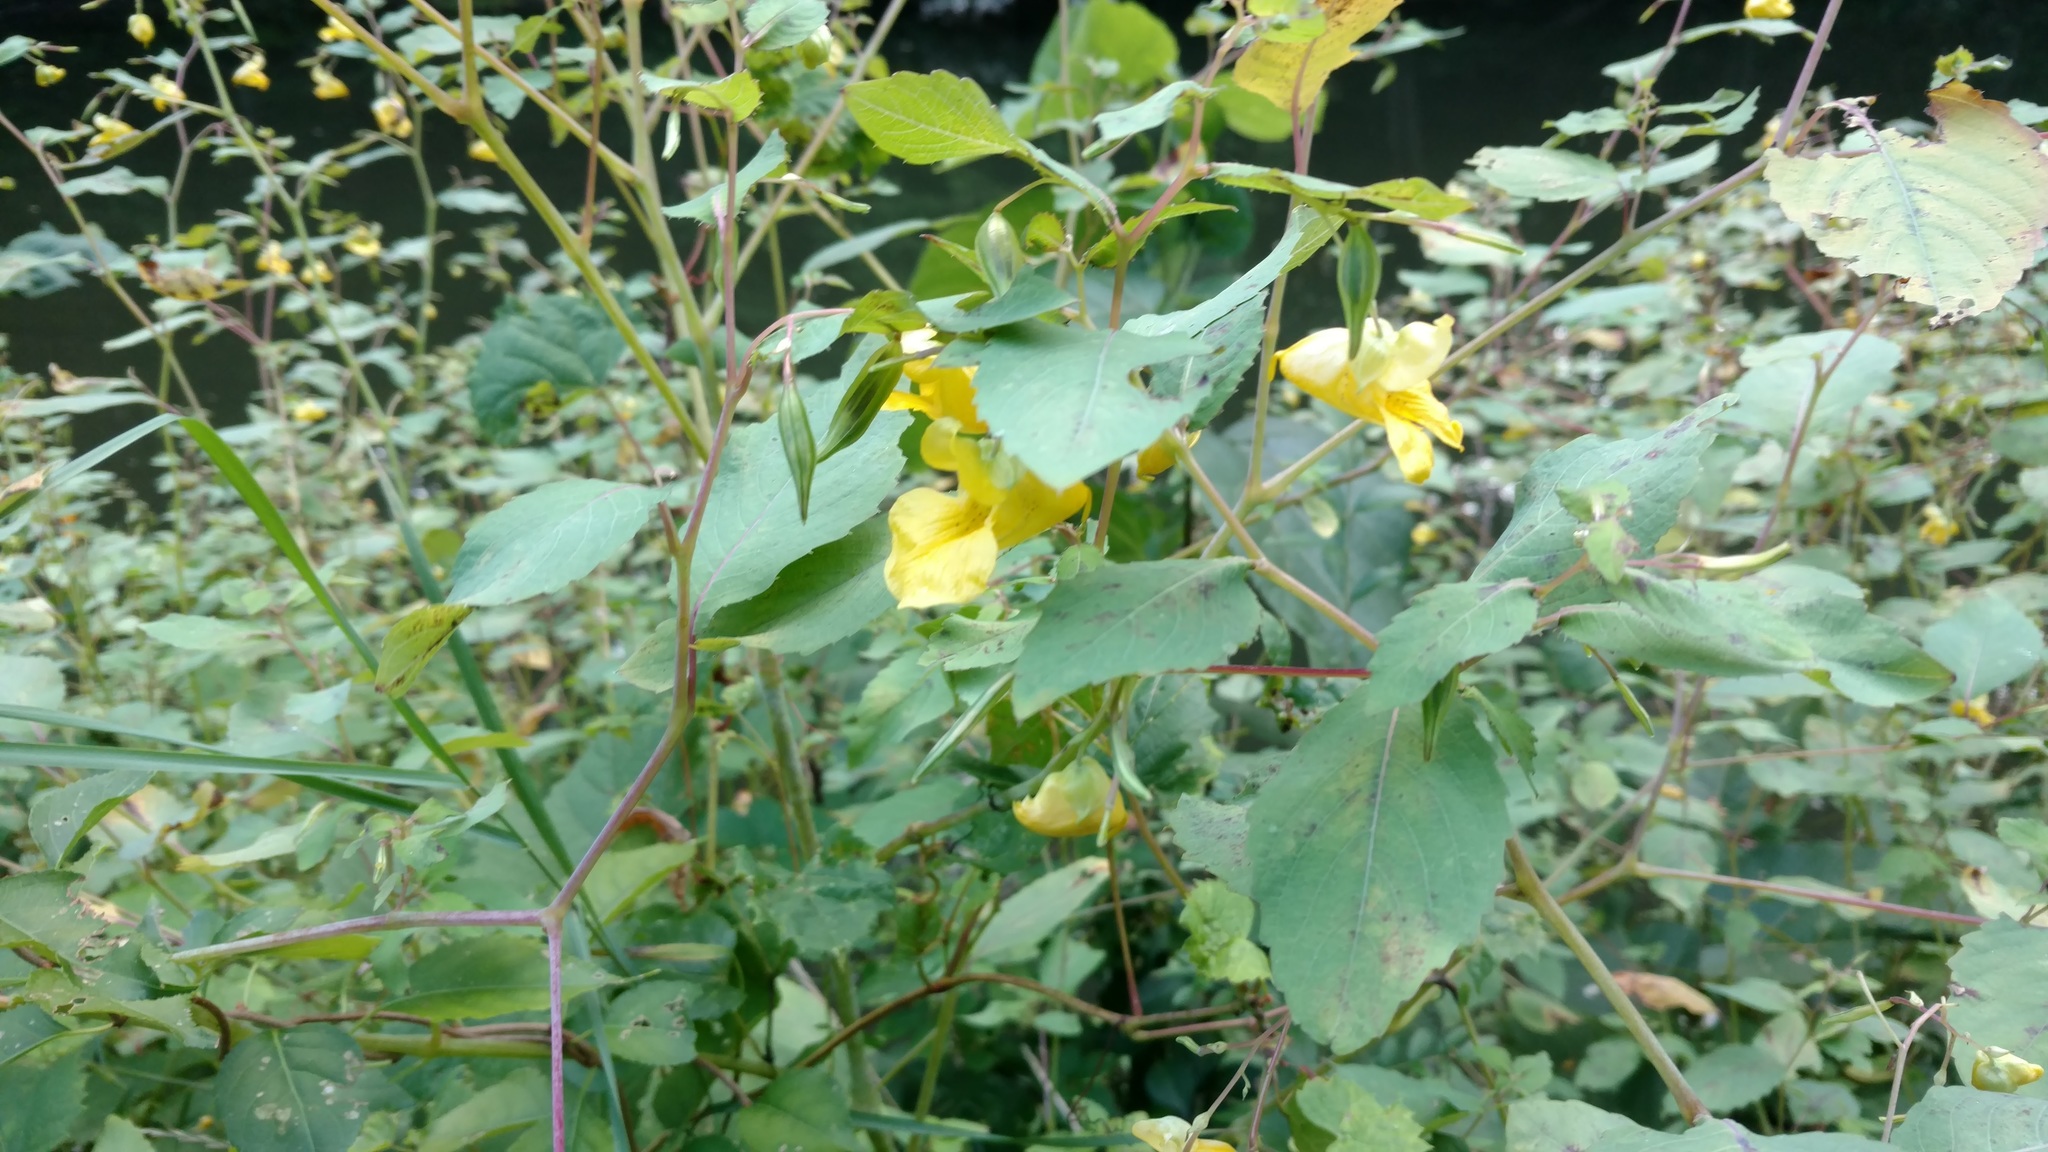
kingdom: Plantae
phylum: Tracheophyta
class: Magnoliopsida
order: Ericales
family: Balsaminaceae
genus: Impatiens
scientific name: Impatiens pallida
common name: Pale snapweed
